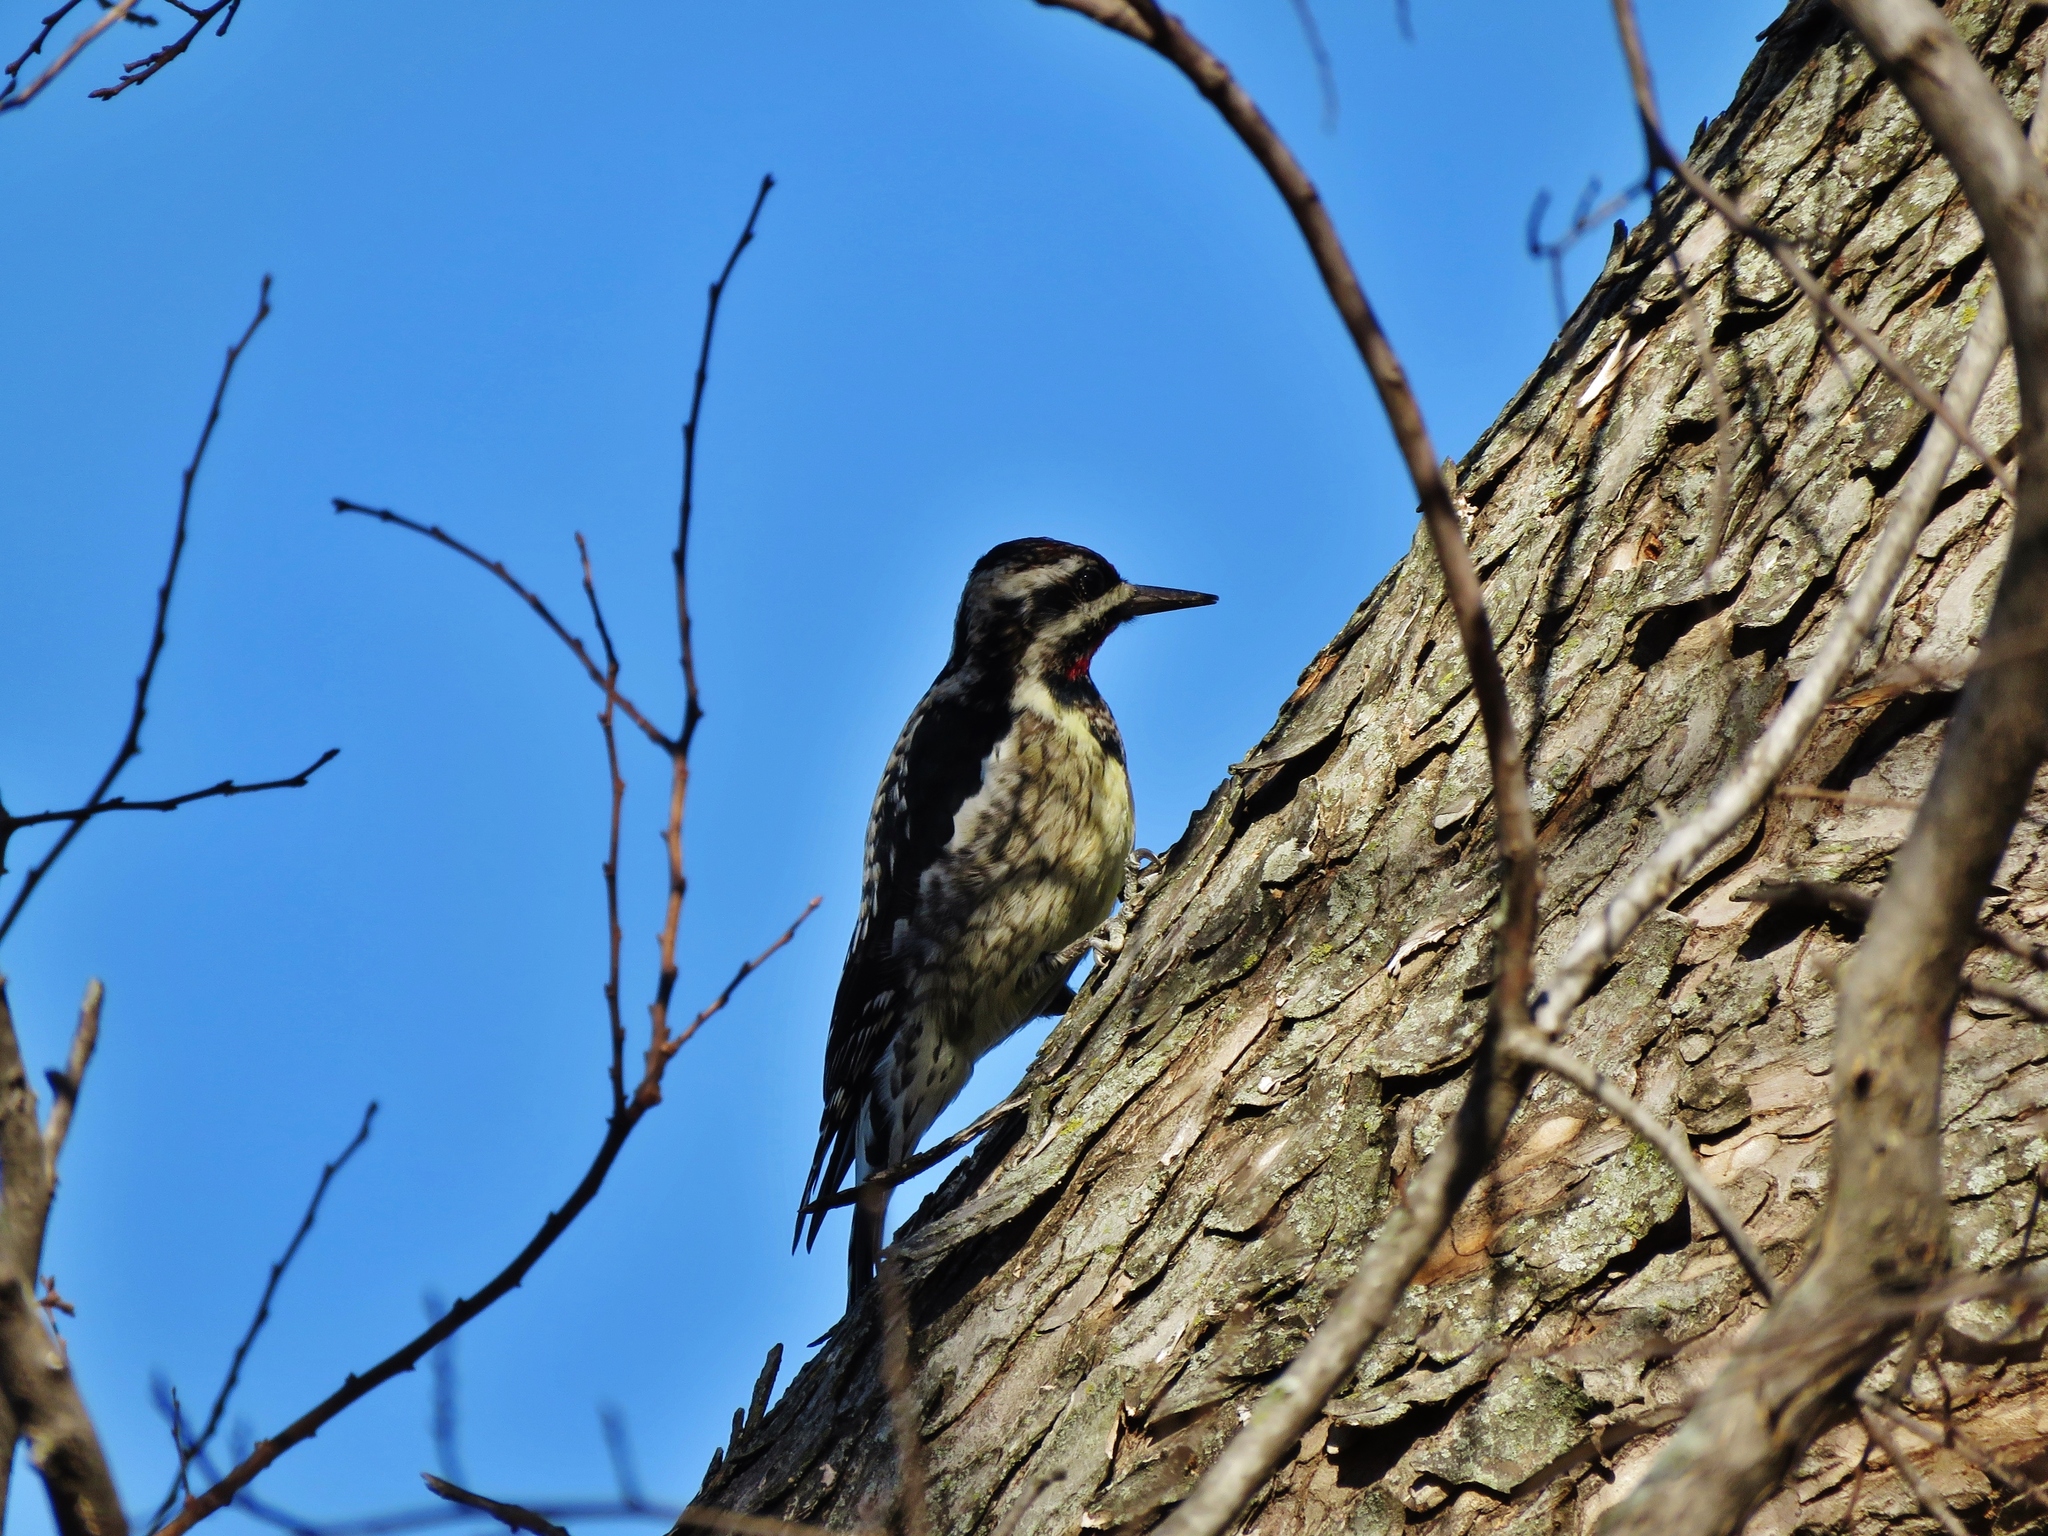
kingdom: Animalia
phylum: Chordata
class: Aves
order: Piciformes
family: Picidae
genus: Sphyrapicus
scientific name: Sphyrapicus varius
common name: Yellow-bellied sapsucker
